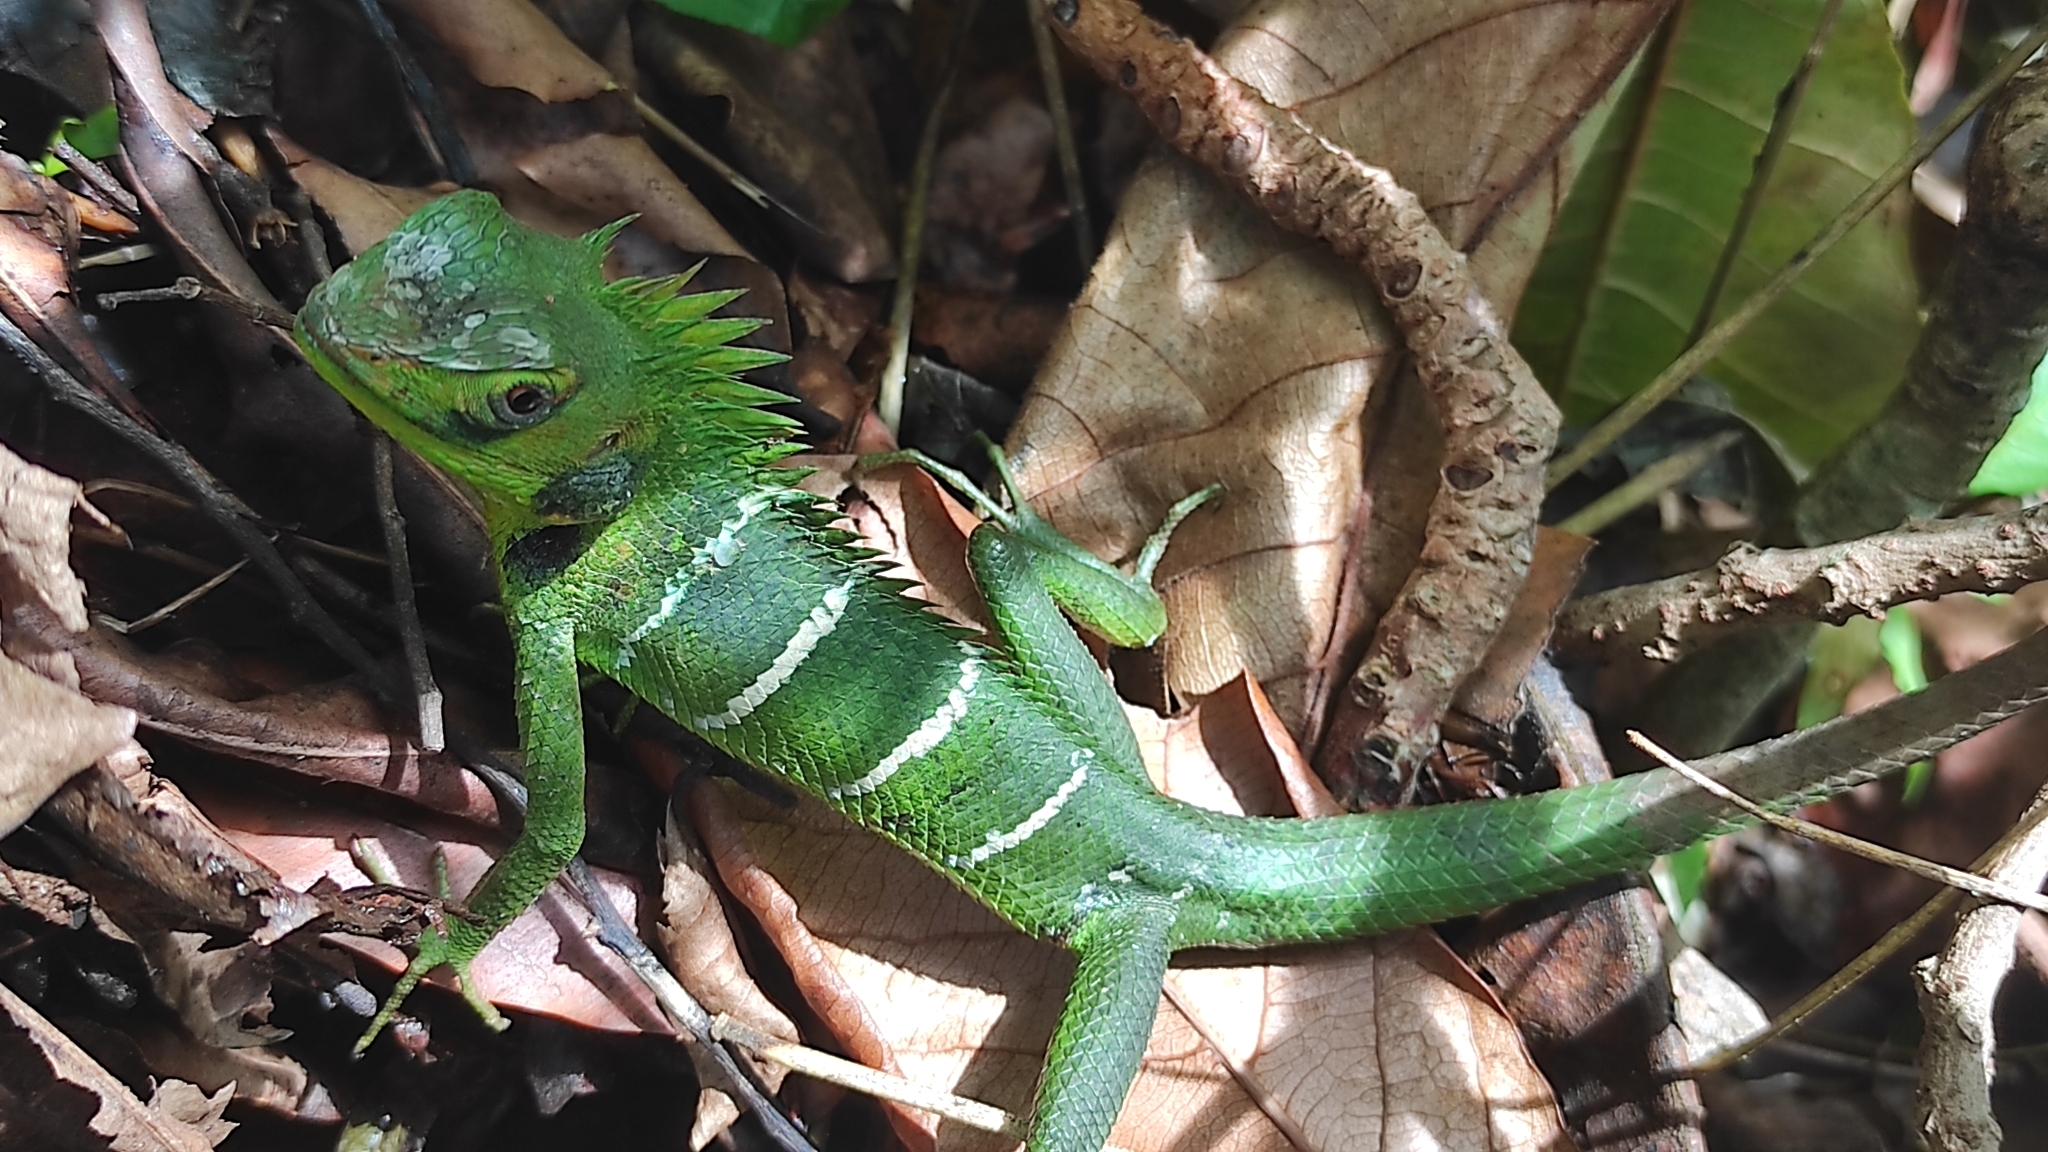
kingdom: Animalia
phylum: Chordata
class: Squamata
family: Agamidae
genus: Calotes
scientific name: Calotes calotes
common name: Common green forest lizard
